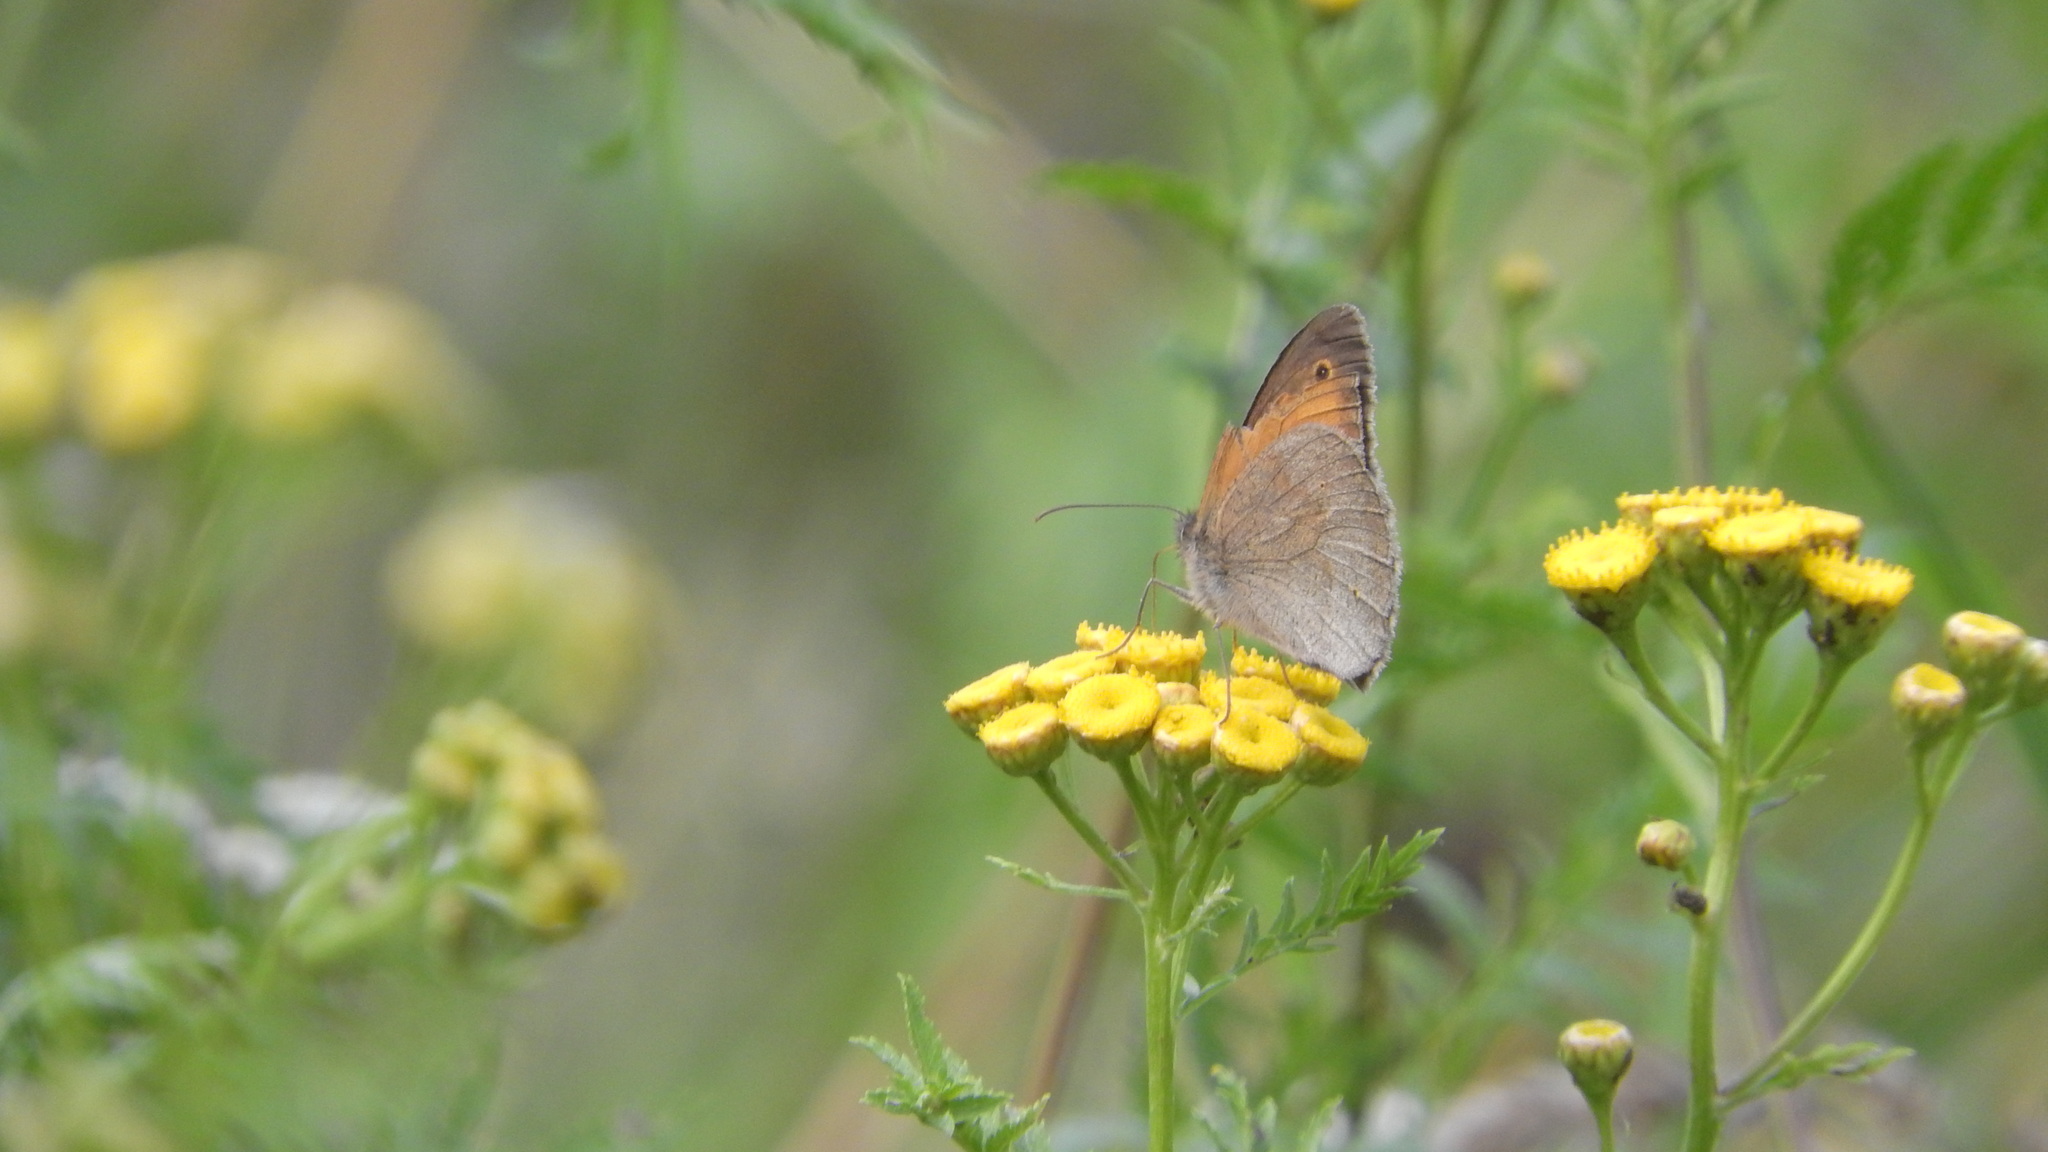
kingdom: Animalia
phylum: Arthropoda
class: Insecta
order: Lepidoptera
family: Nymphalidae
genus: Maniola
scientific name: Maniola jurtina
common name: Meadow brown
